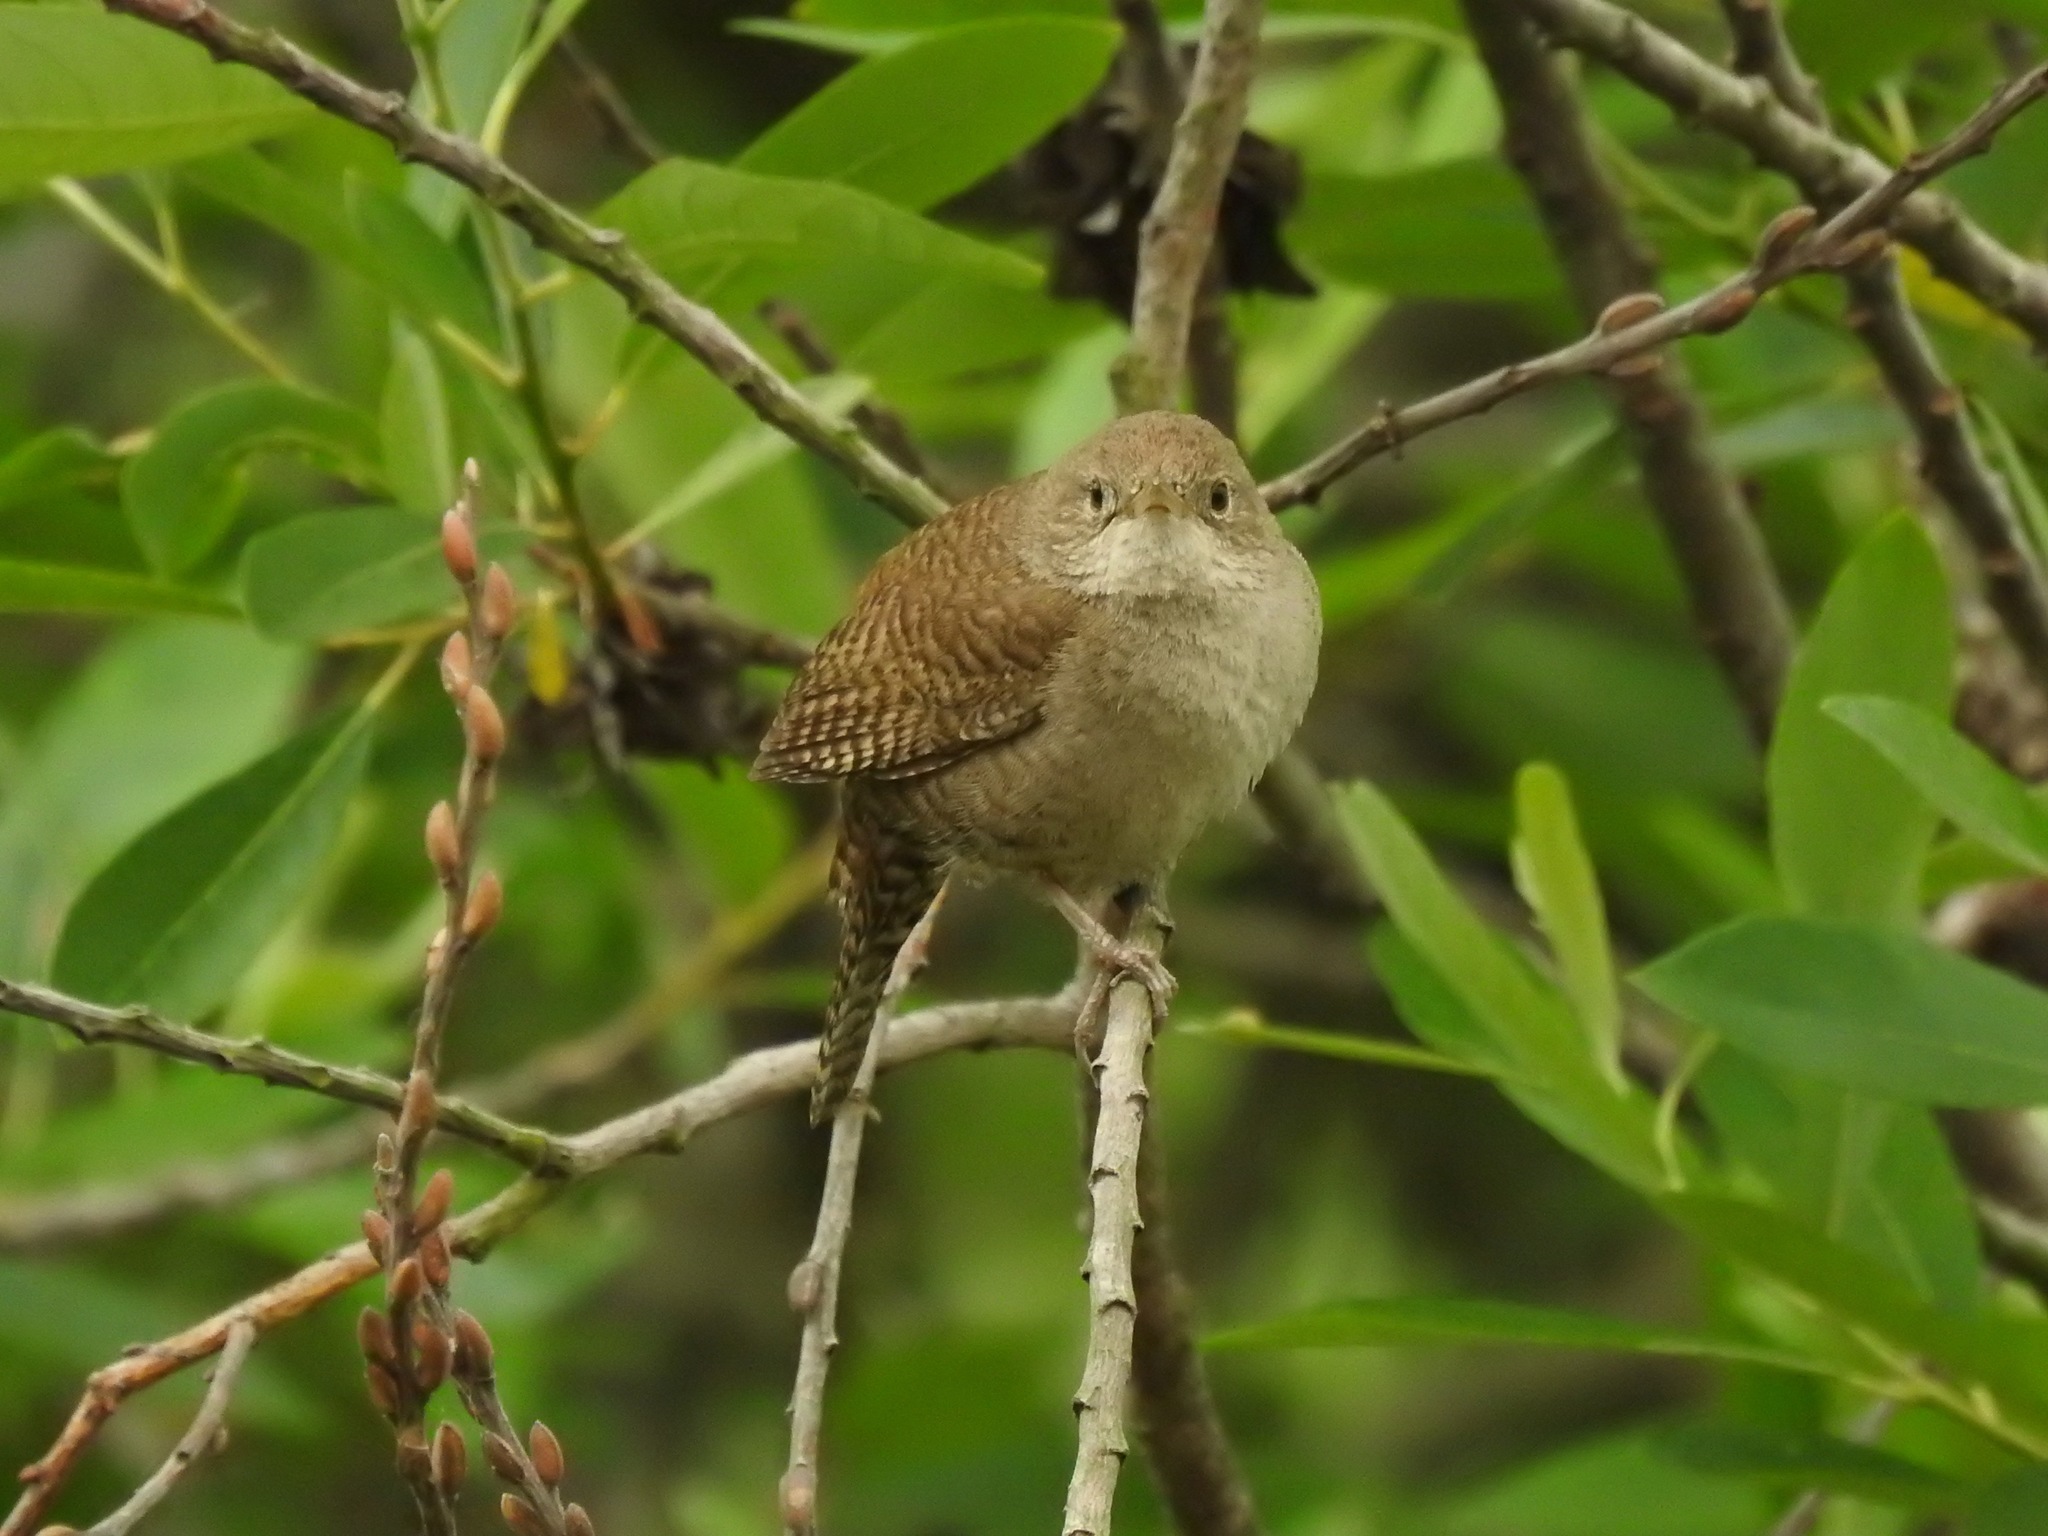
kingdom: Animalia
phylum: Chordata
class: Aves
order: Passeriformes
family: Troglodytidae
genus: Troglodytes
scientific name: Troglodytes aedon
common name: House wren
